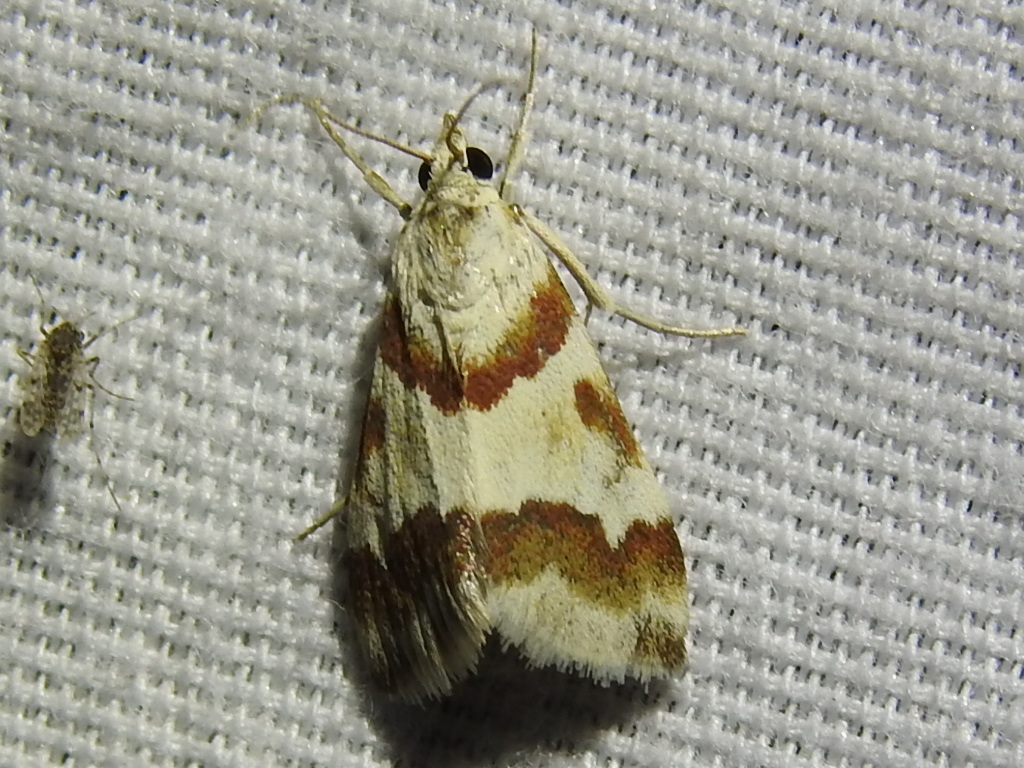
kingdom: Animalia
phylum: Arthropoda
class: Insecta
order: Lepidoptera
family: Crambidae
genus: Noctuelia
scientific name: Noctuelia Mimoschinia rufofascialis
